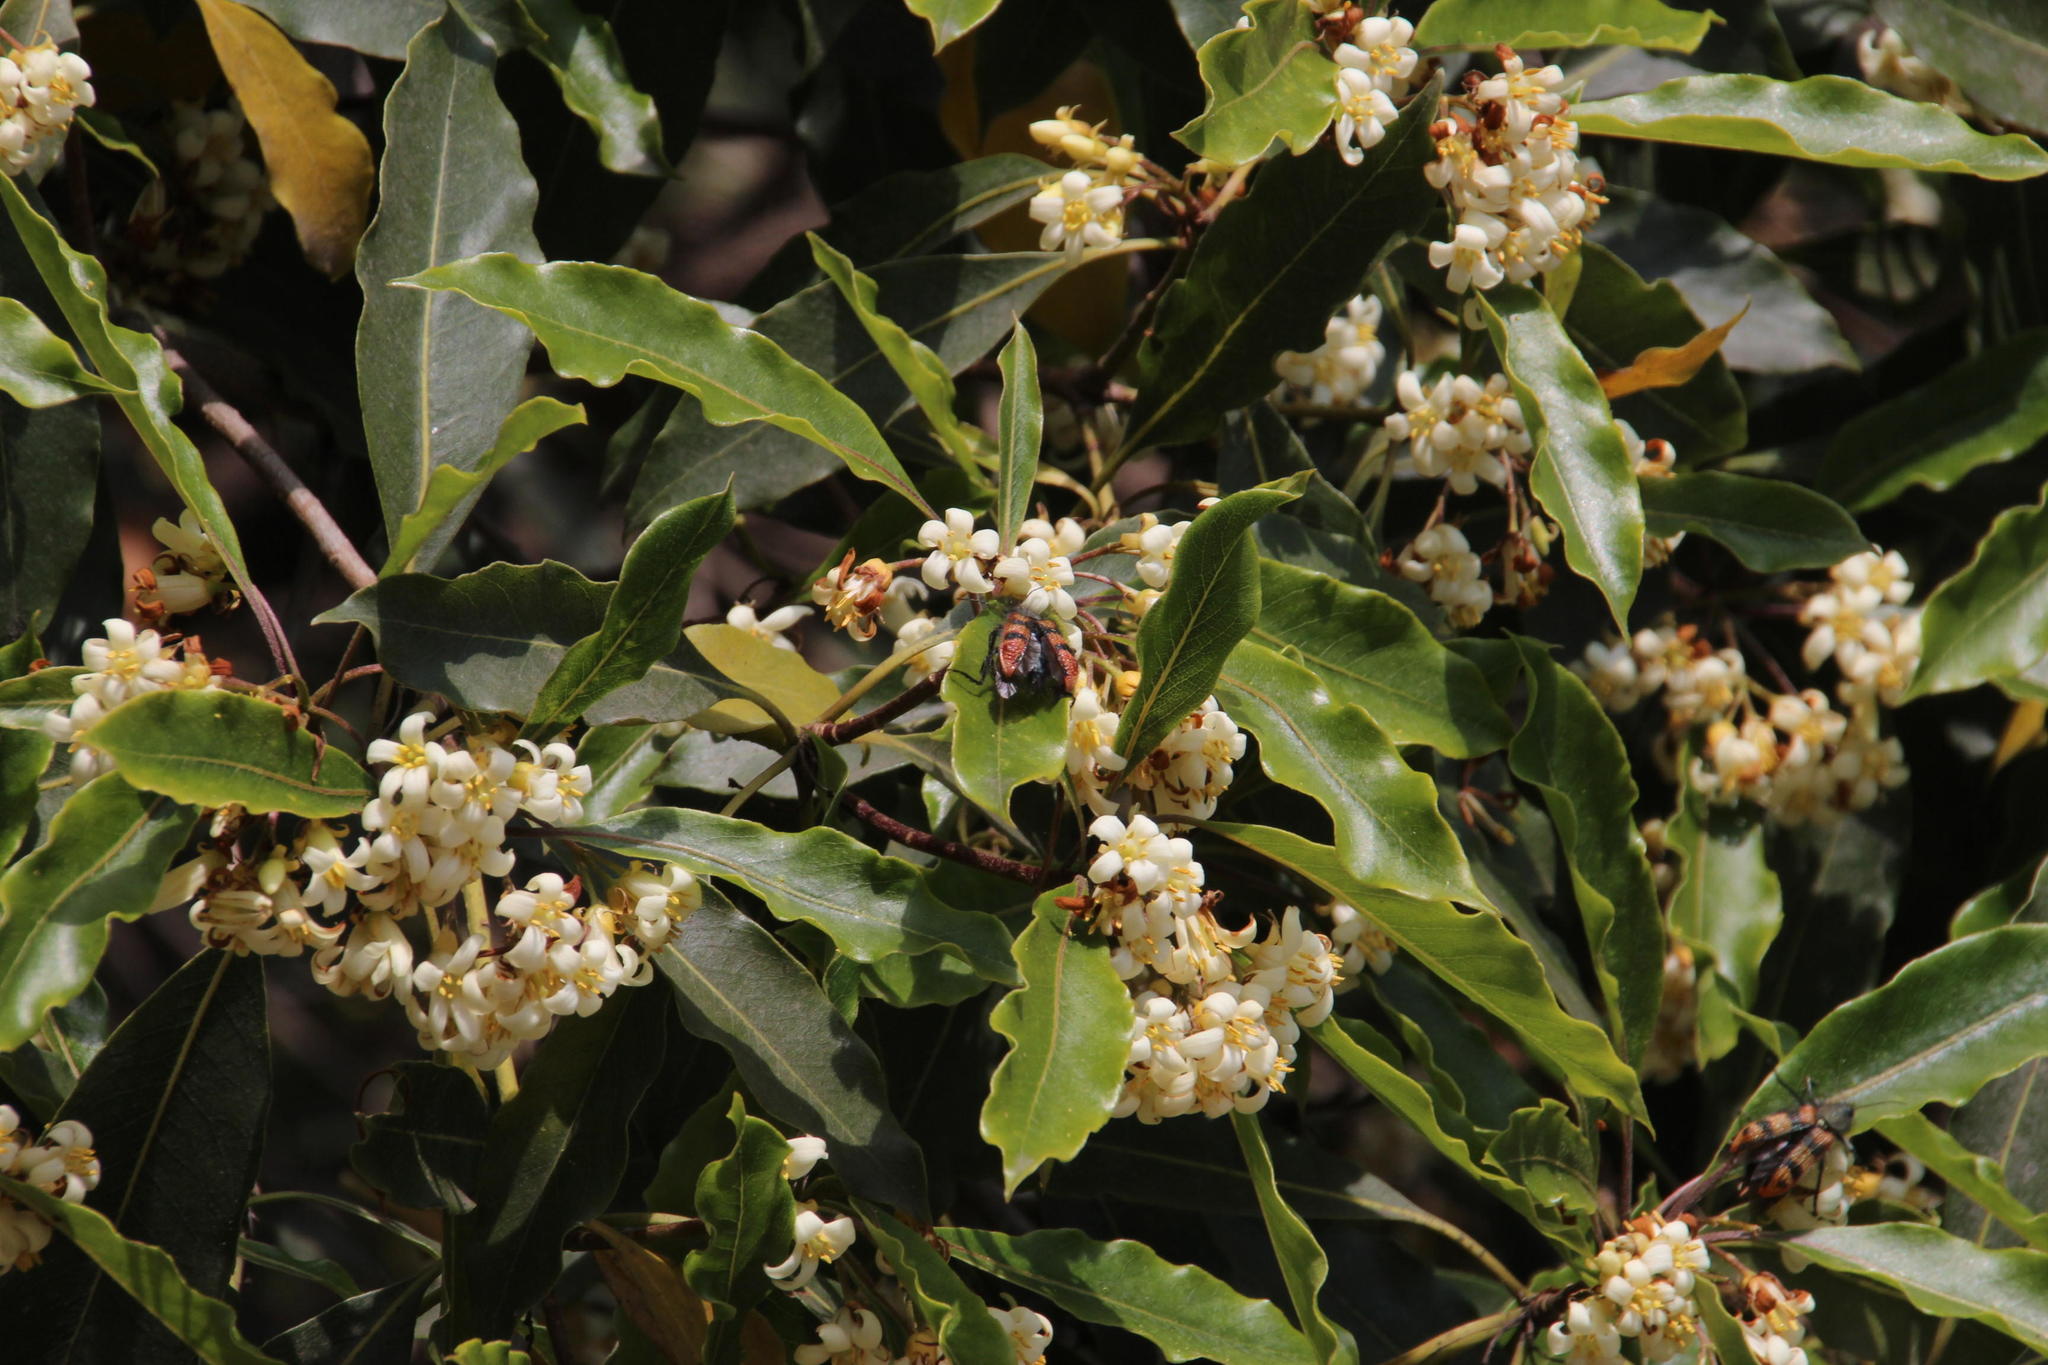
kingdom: Plantae
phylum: Tracheophyta
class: Magnoliopsida
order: Apiales
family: Pittosporaceae
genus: Pittosporum
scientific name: Pittosporum undulatum
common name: Australian cheesewood
